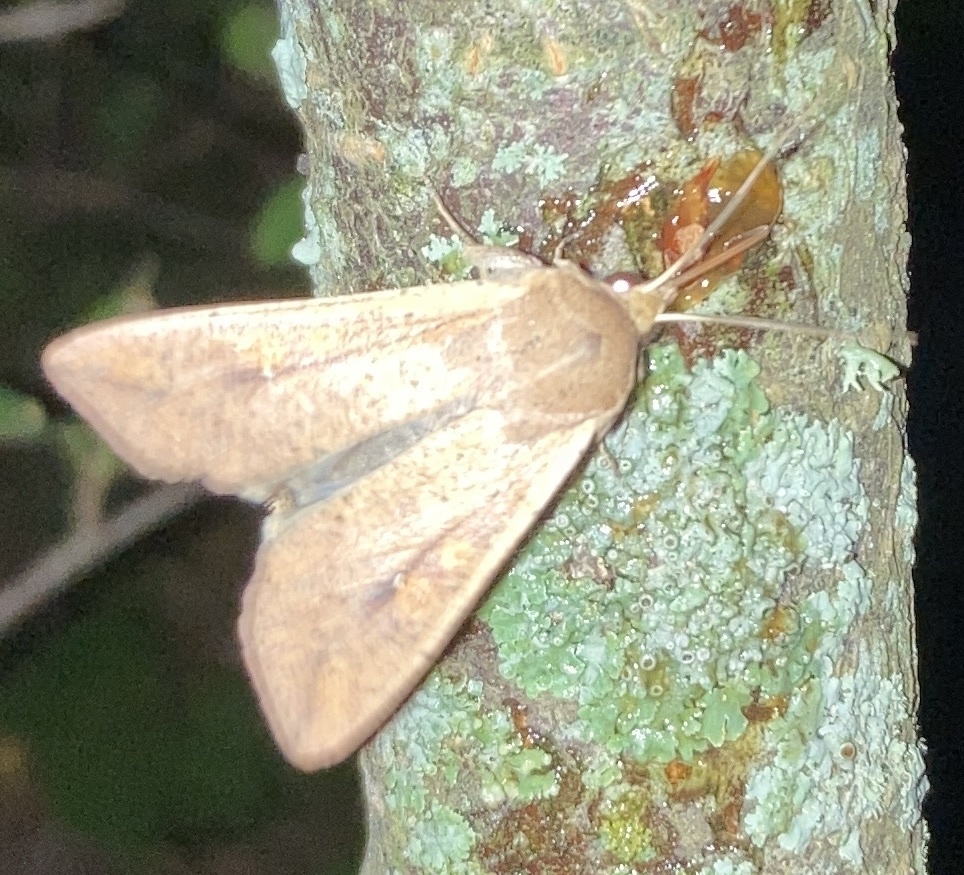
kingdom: Animalia
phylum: Arthropoda
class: Insecta
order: Lepidoptera
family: Noctuidae
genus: Mythimna
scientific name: Mythimna unipuncta
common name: White-speck
